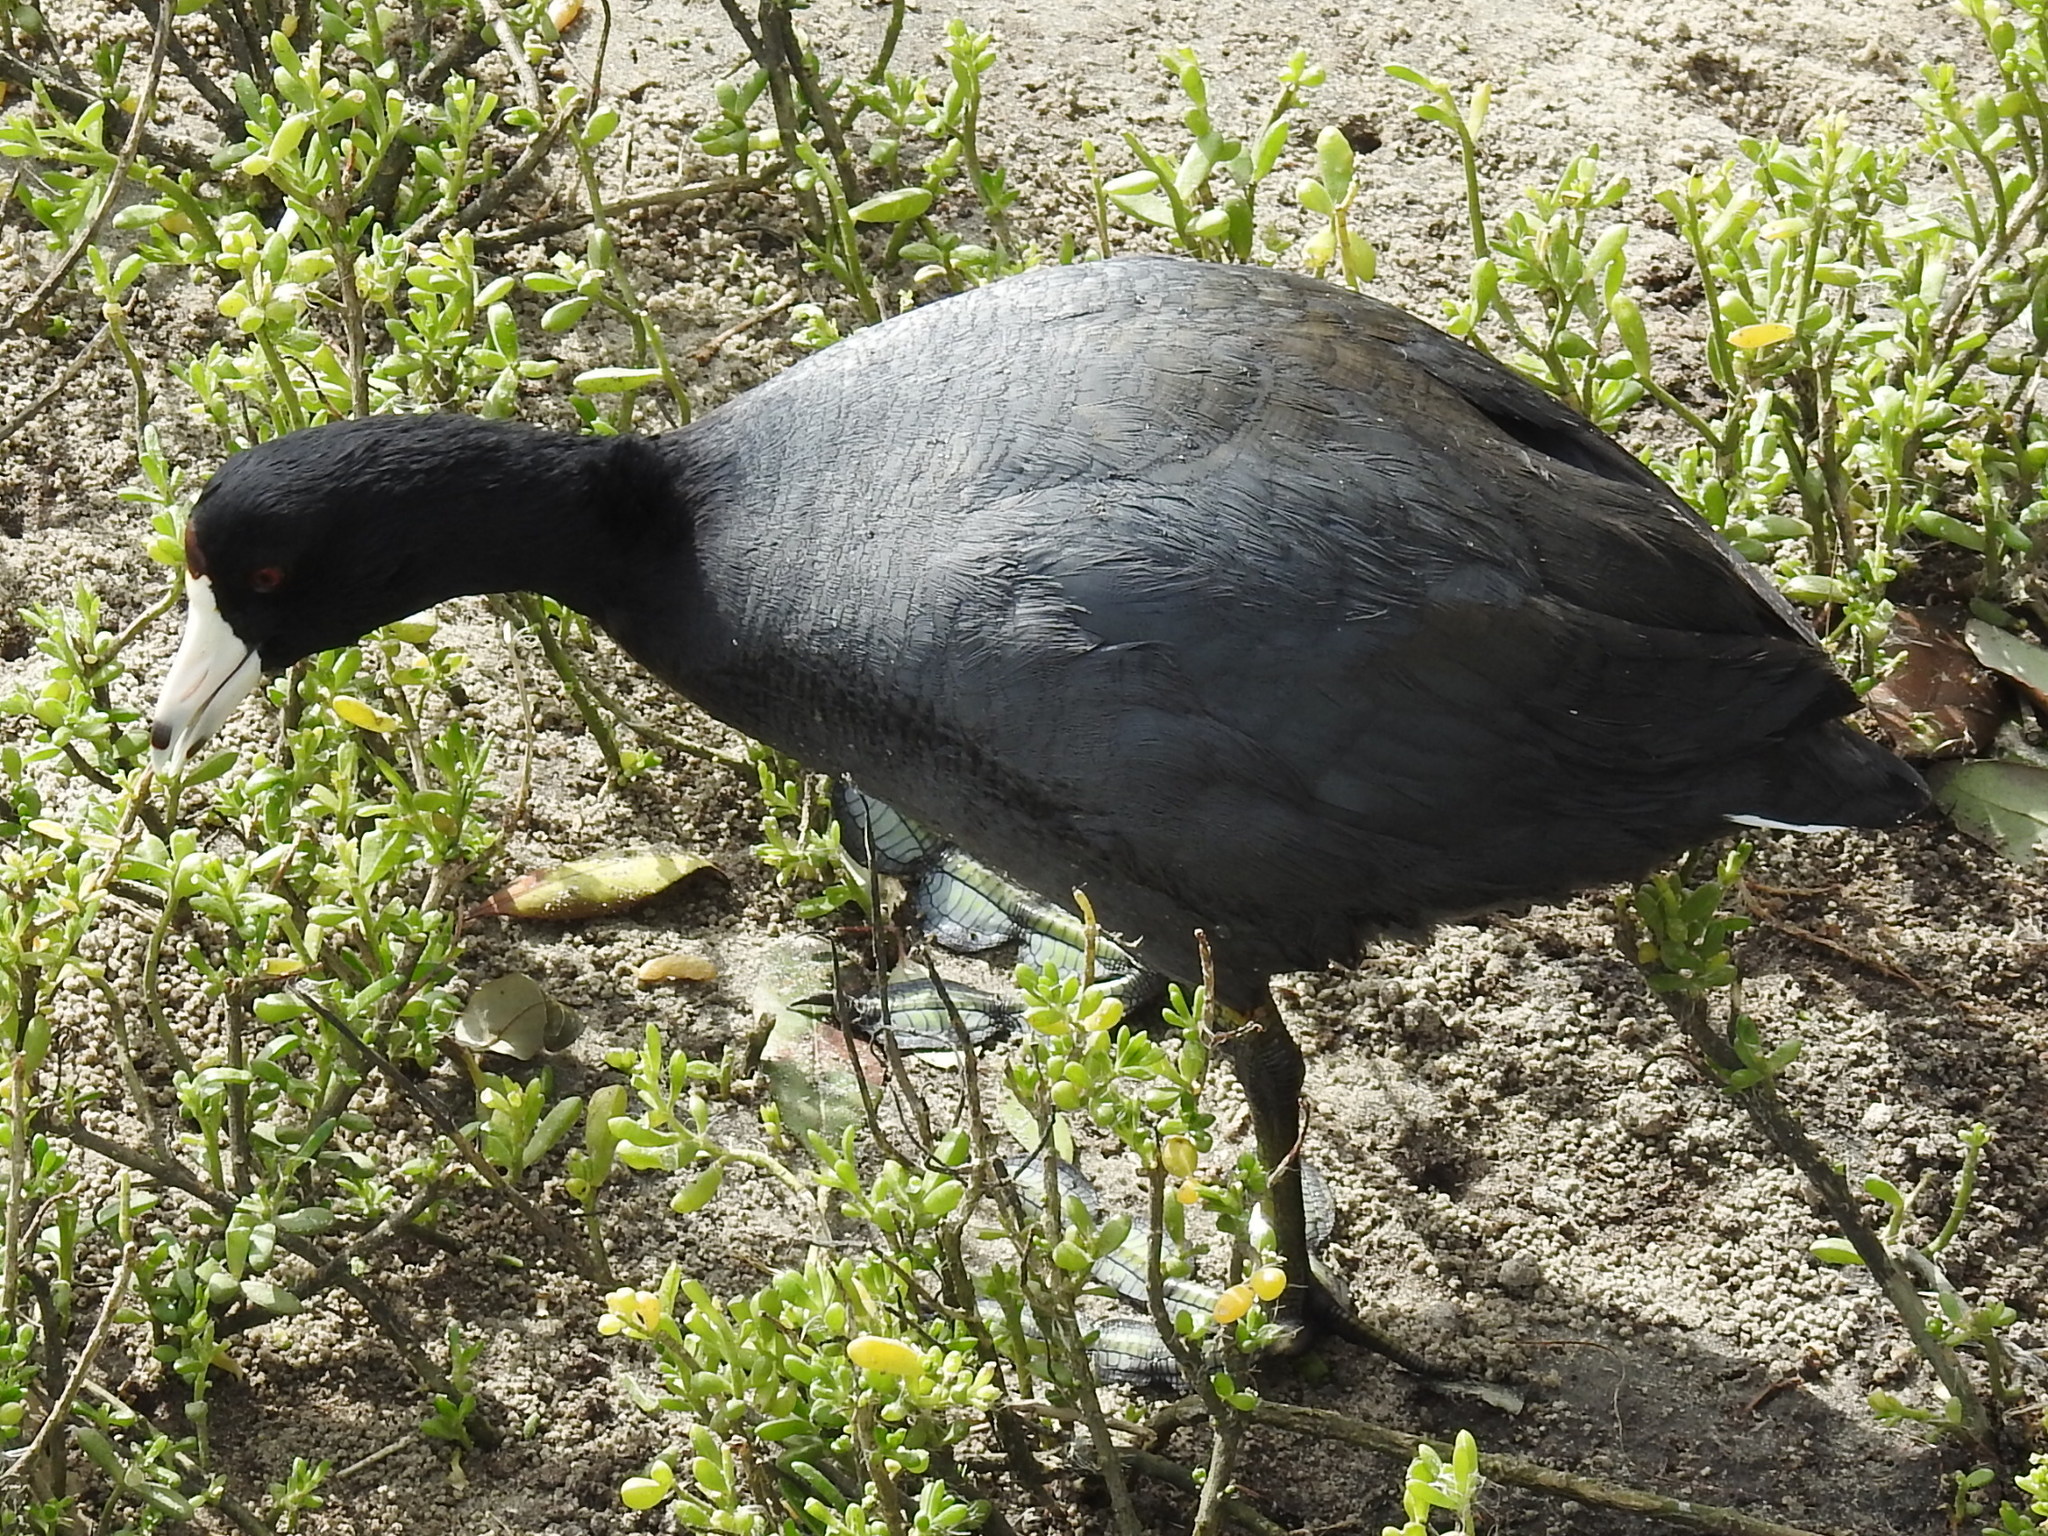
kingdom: Animalia
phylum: Chordata
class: Aves
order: Gruiformes
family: Rallidae
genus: Fulica
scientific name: Fulica americana
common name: American coot
